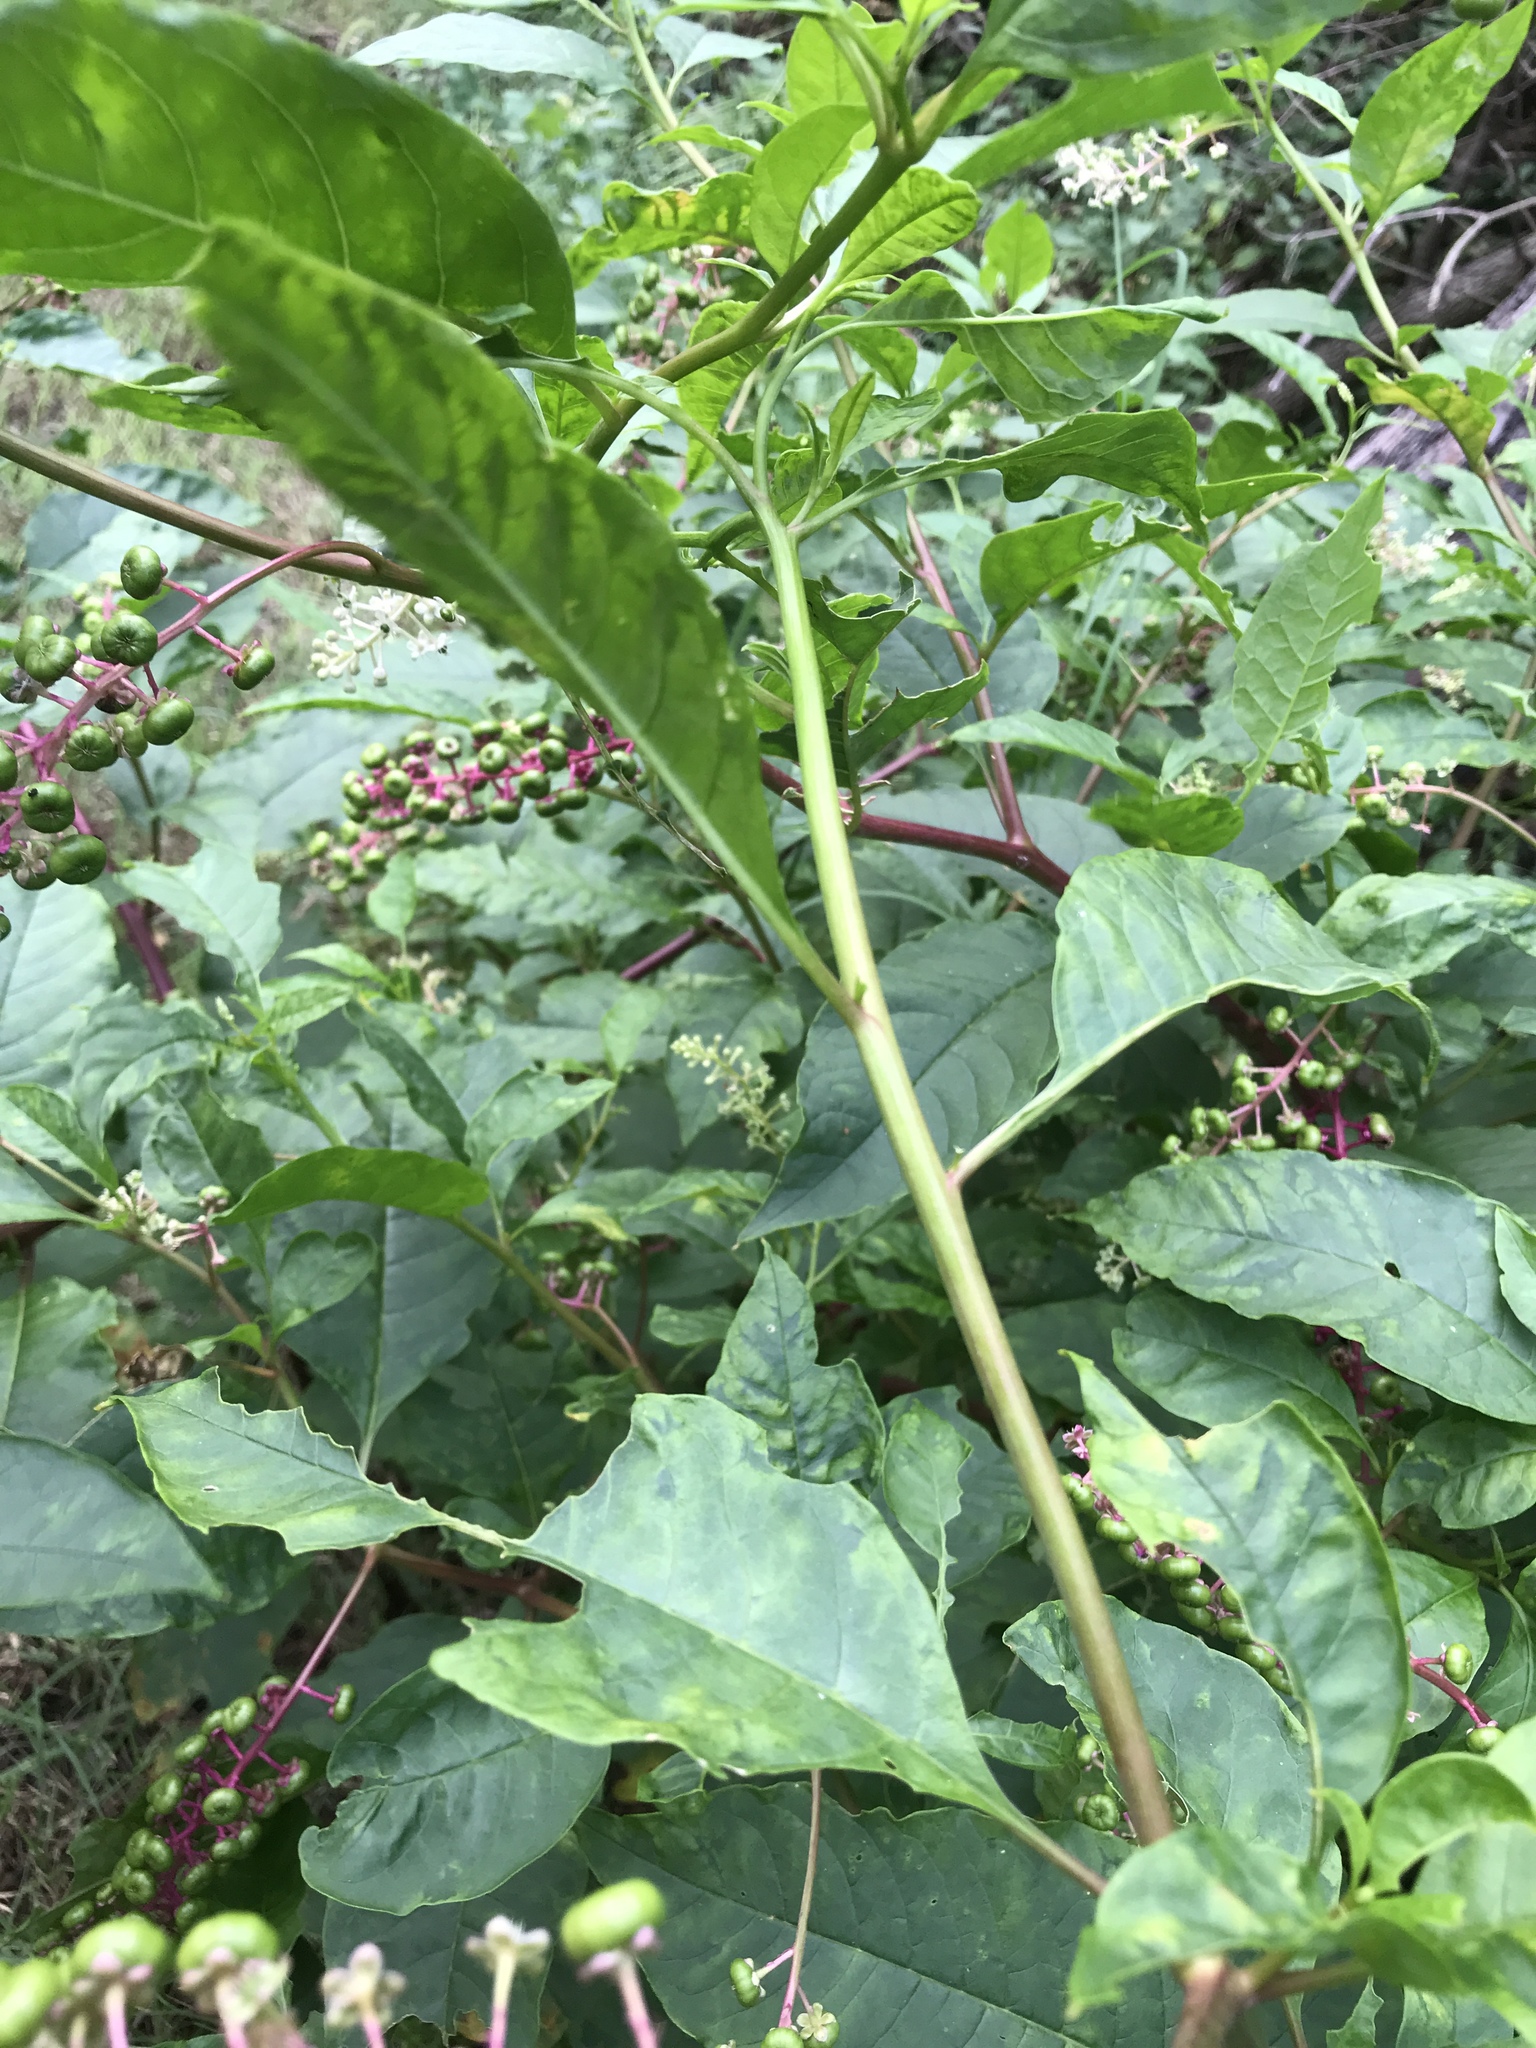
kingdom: Plantae
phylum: Tracheophyta
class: Magnoliopsida
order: Caryophyllales
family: Phytolaccaceae
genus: Phytolacca
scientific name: Phytolacca americana
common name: American pokeweed
